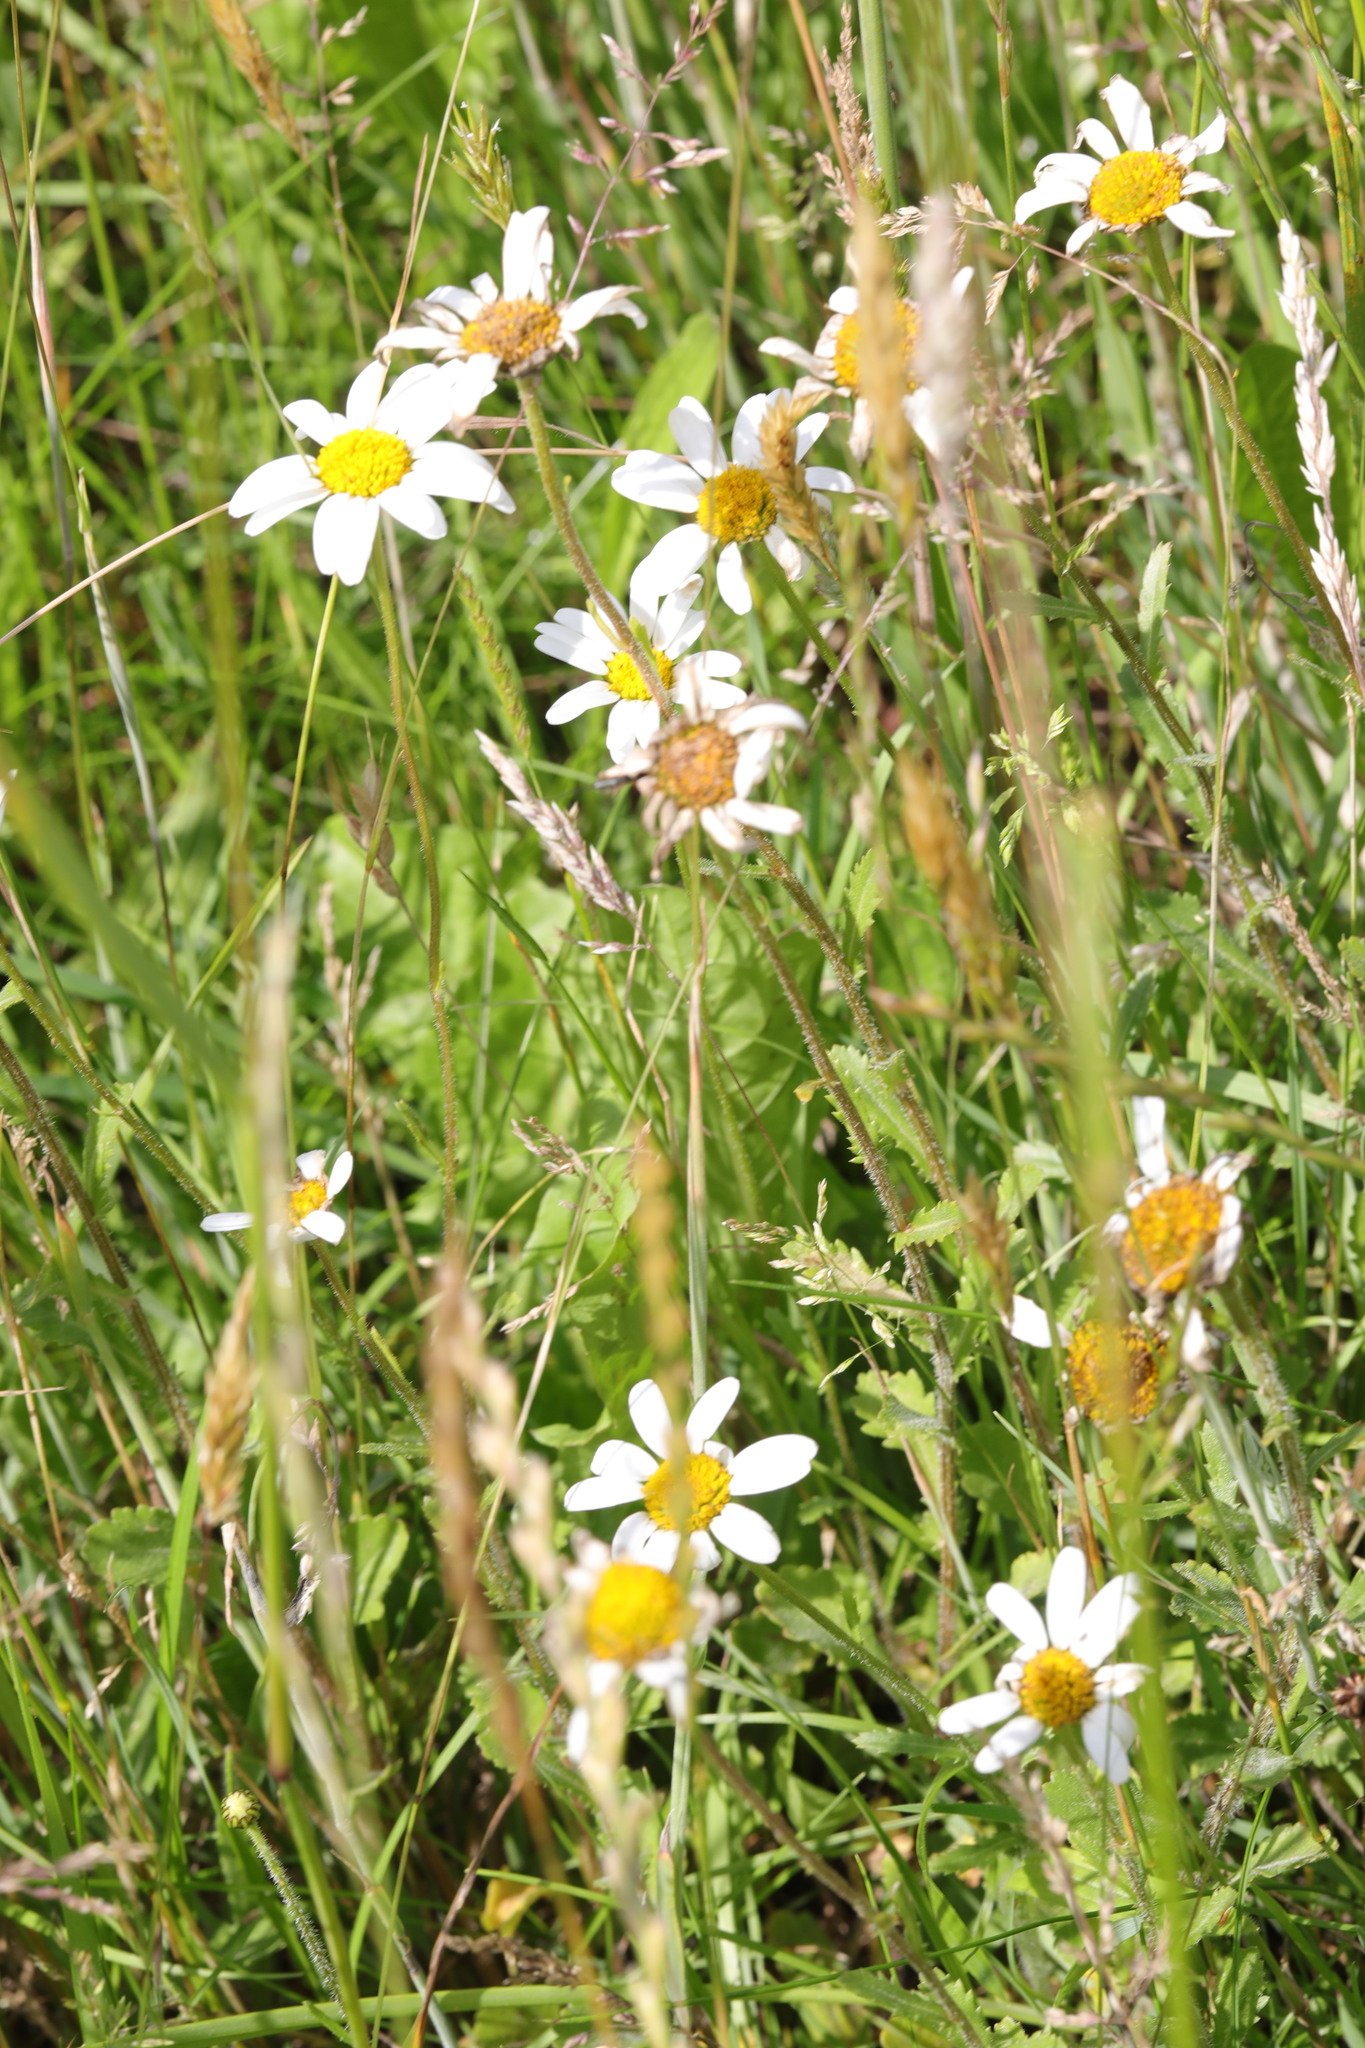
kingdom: Plantae
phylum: Tracheophyta
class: Magnoliopsida
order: Asterales
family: Asteraceae
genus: Leucanthemum
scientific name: Leucanthemum vulgare
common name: Oxeye daisy
